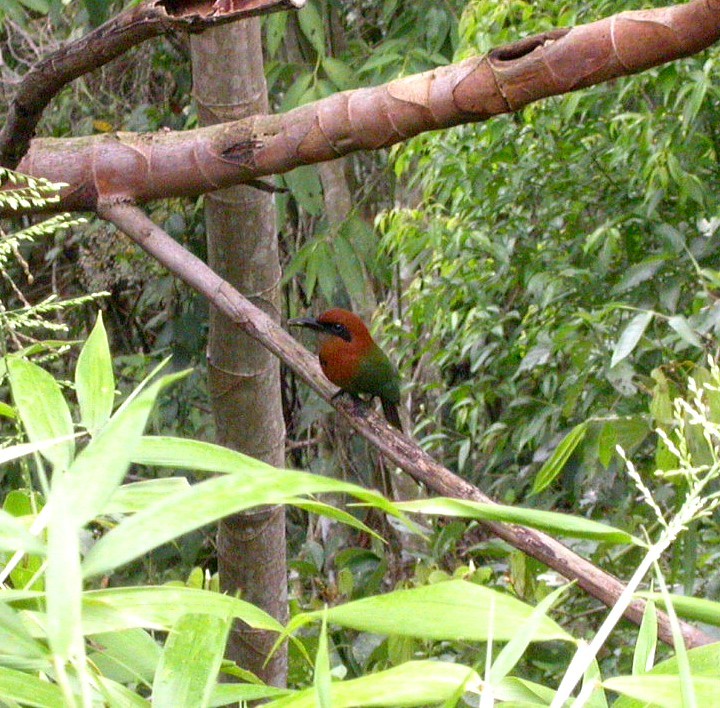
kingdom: Animalia
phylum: Chordata
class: Aves
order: Coraciiformes
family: Momotidae
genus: Electron
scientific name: Electron platyrhynchum
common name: Broad-billed motmot
